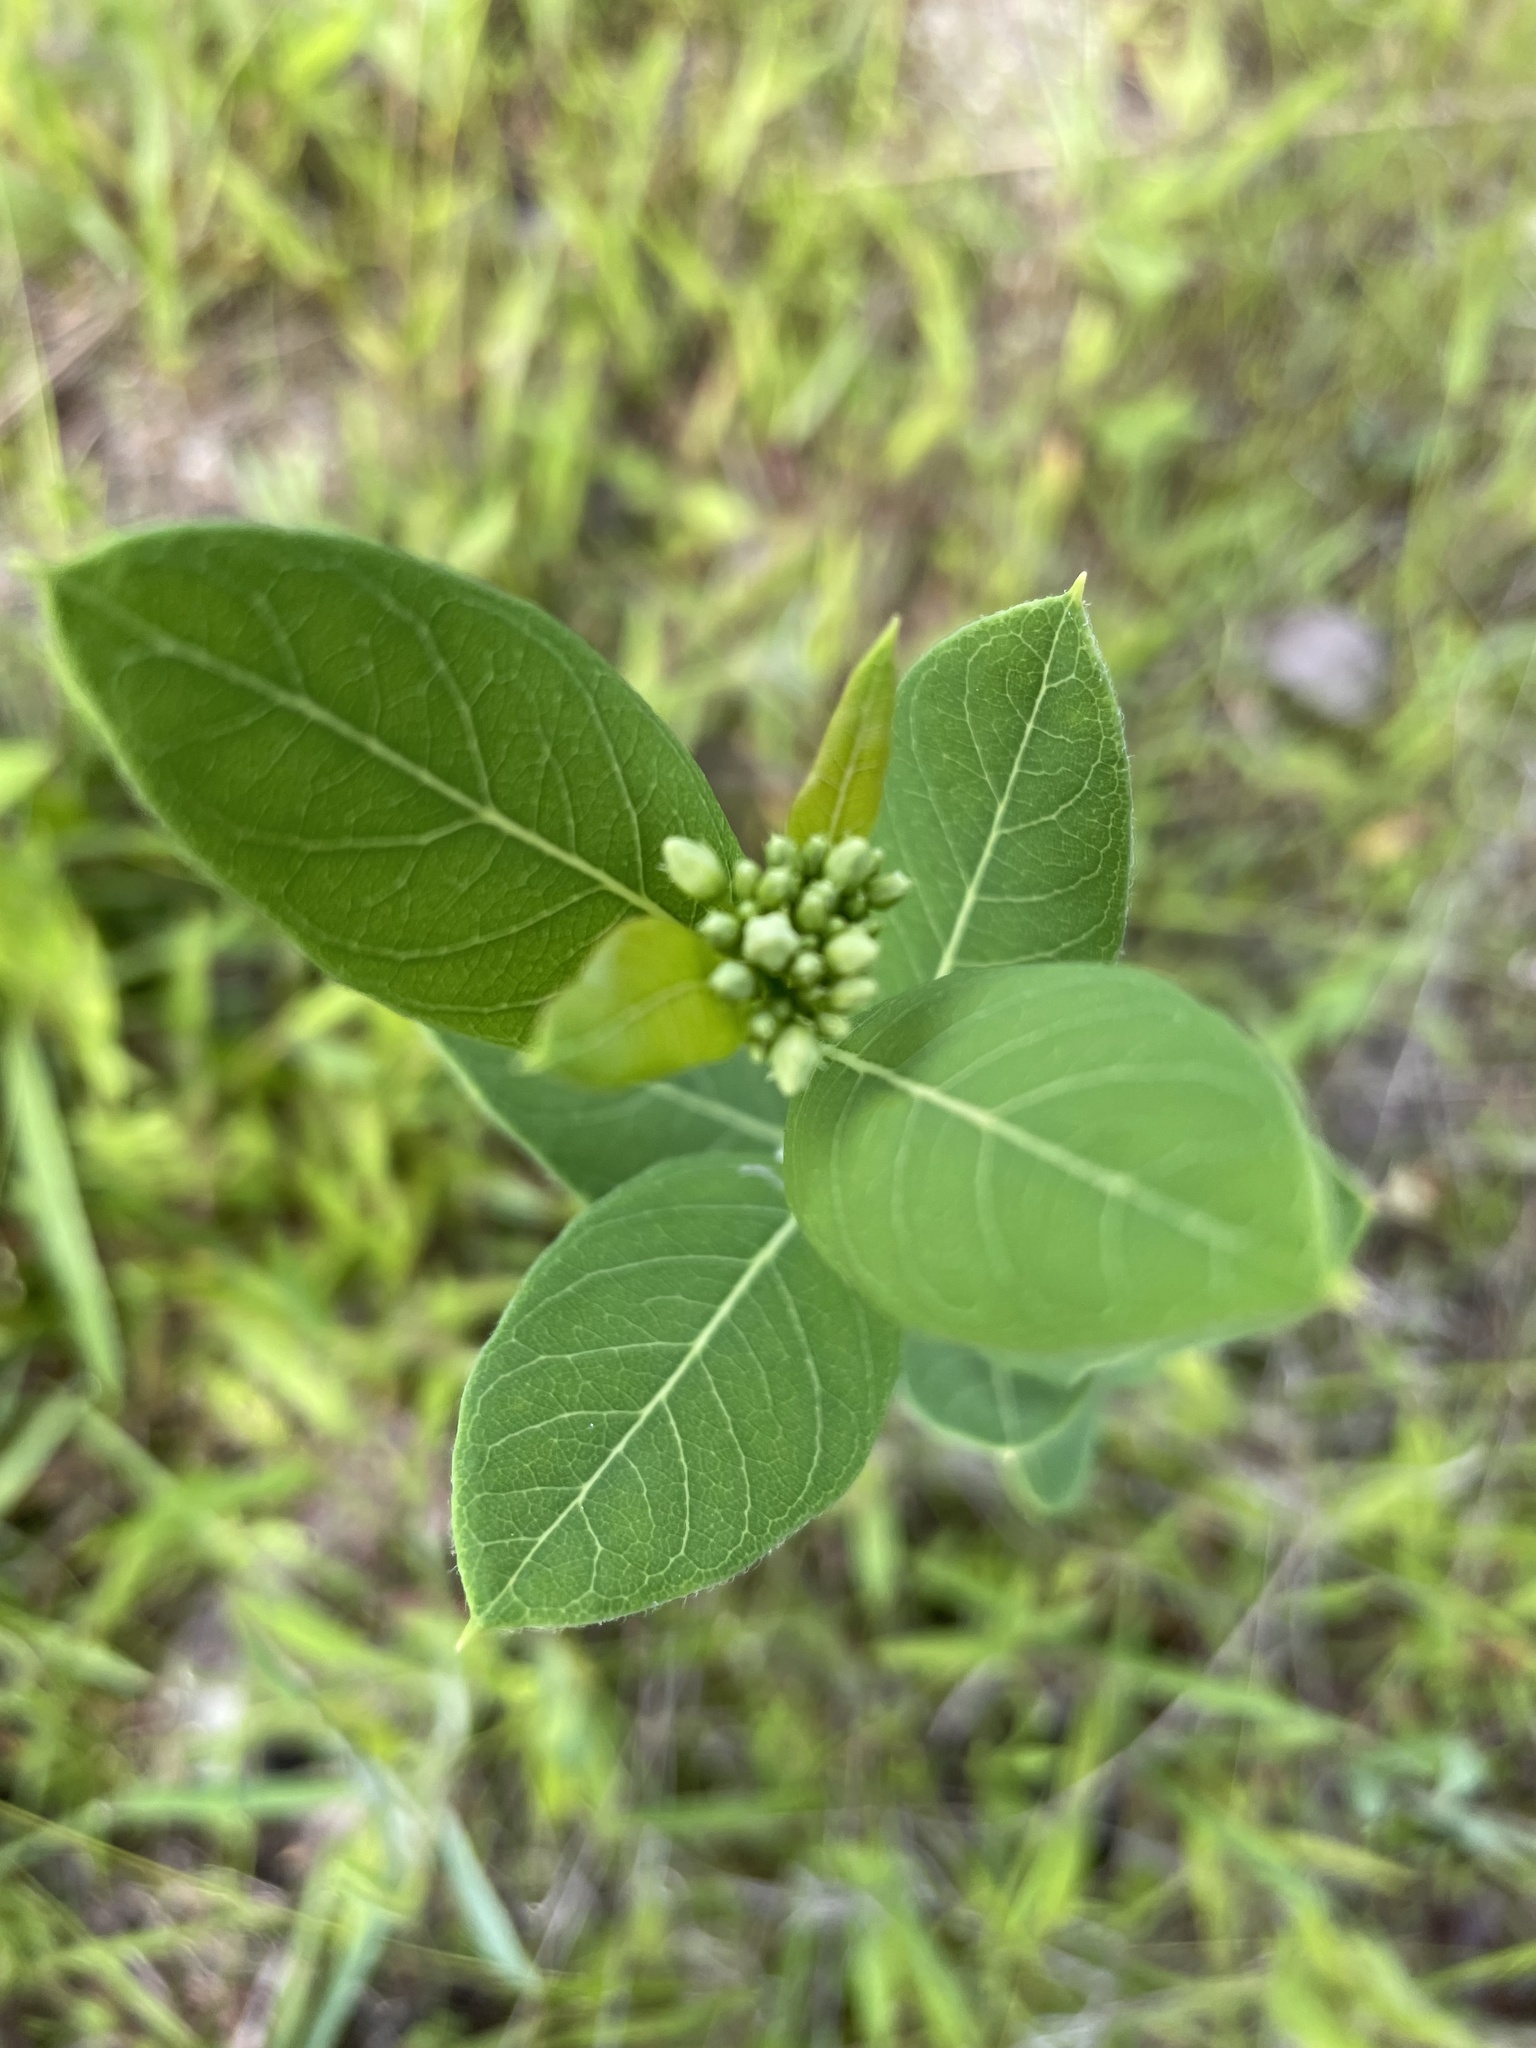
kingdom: Plantae
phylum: Tracheophyta
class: Magnoliopsida
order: Gentianales
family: Apocynaceae
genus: Apocynum
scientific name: Apocynum cannabinum
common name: Hemp dogbane
